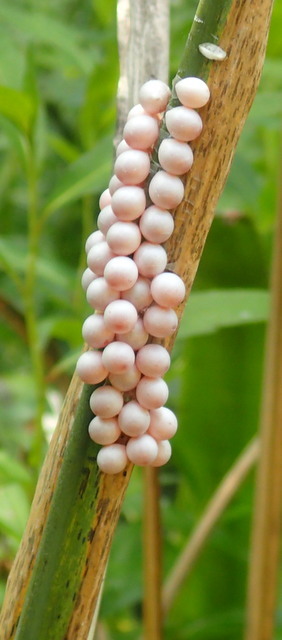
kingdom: Animalia
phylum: Mollusca
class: Gastropoda
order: Architaenioglossa
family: Ampullariidae
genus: Pomacea
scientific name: Pomacea paludosa
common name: Florida applesnail
